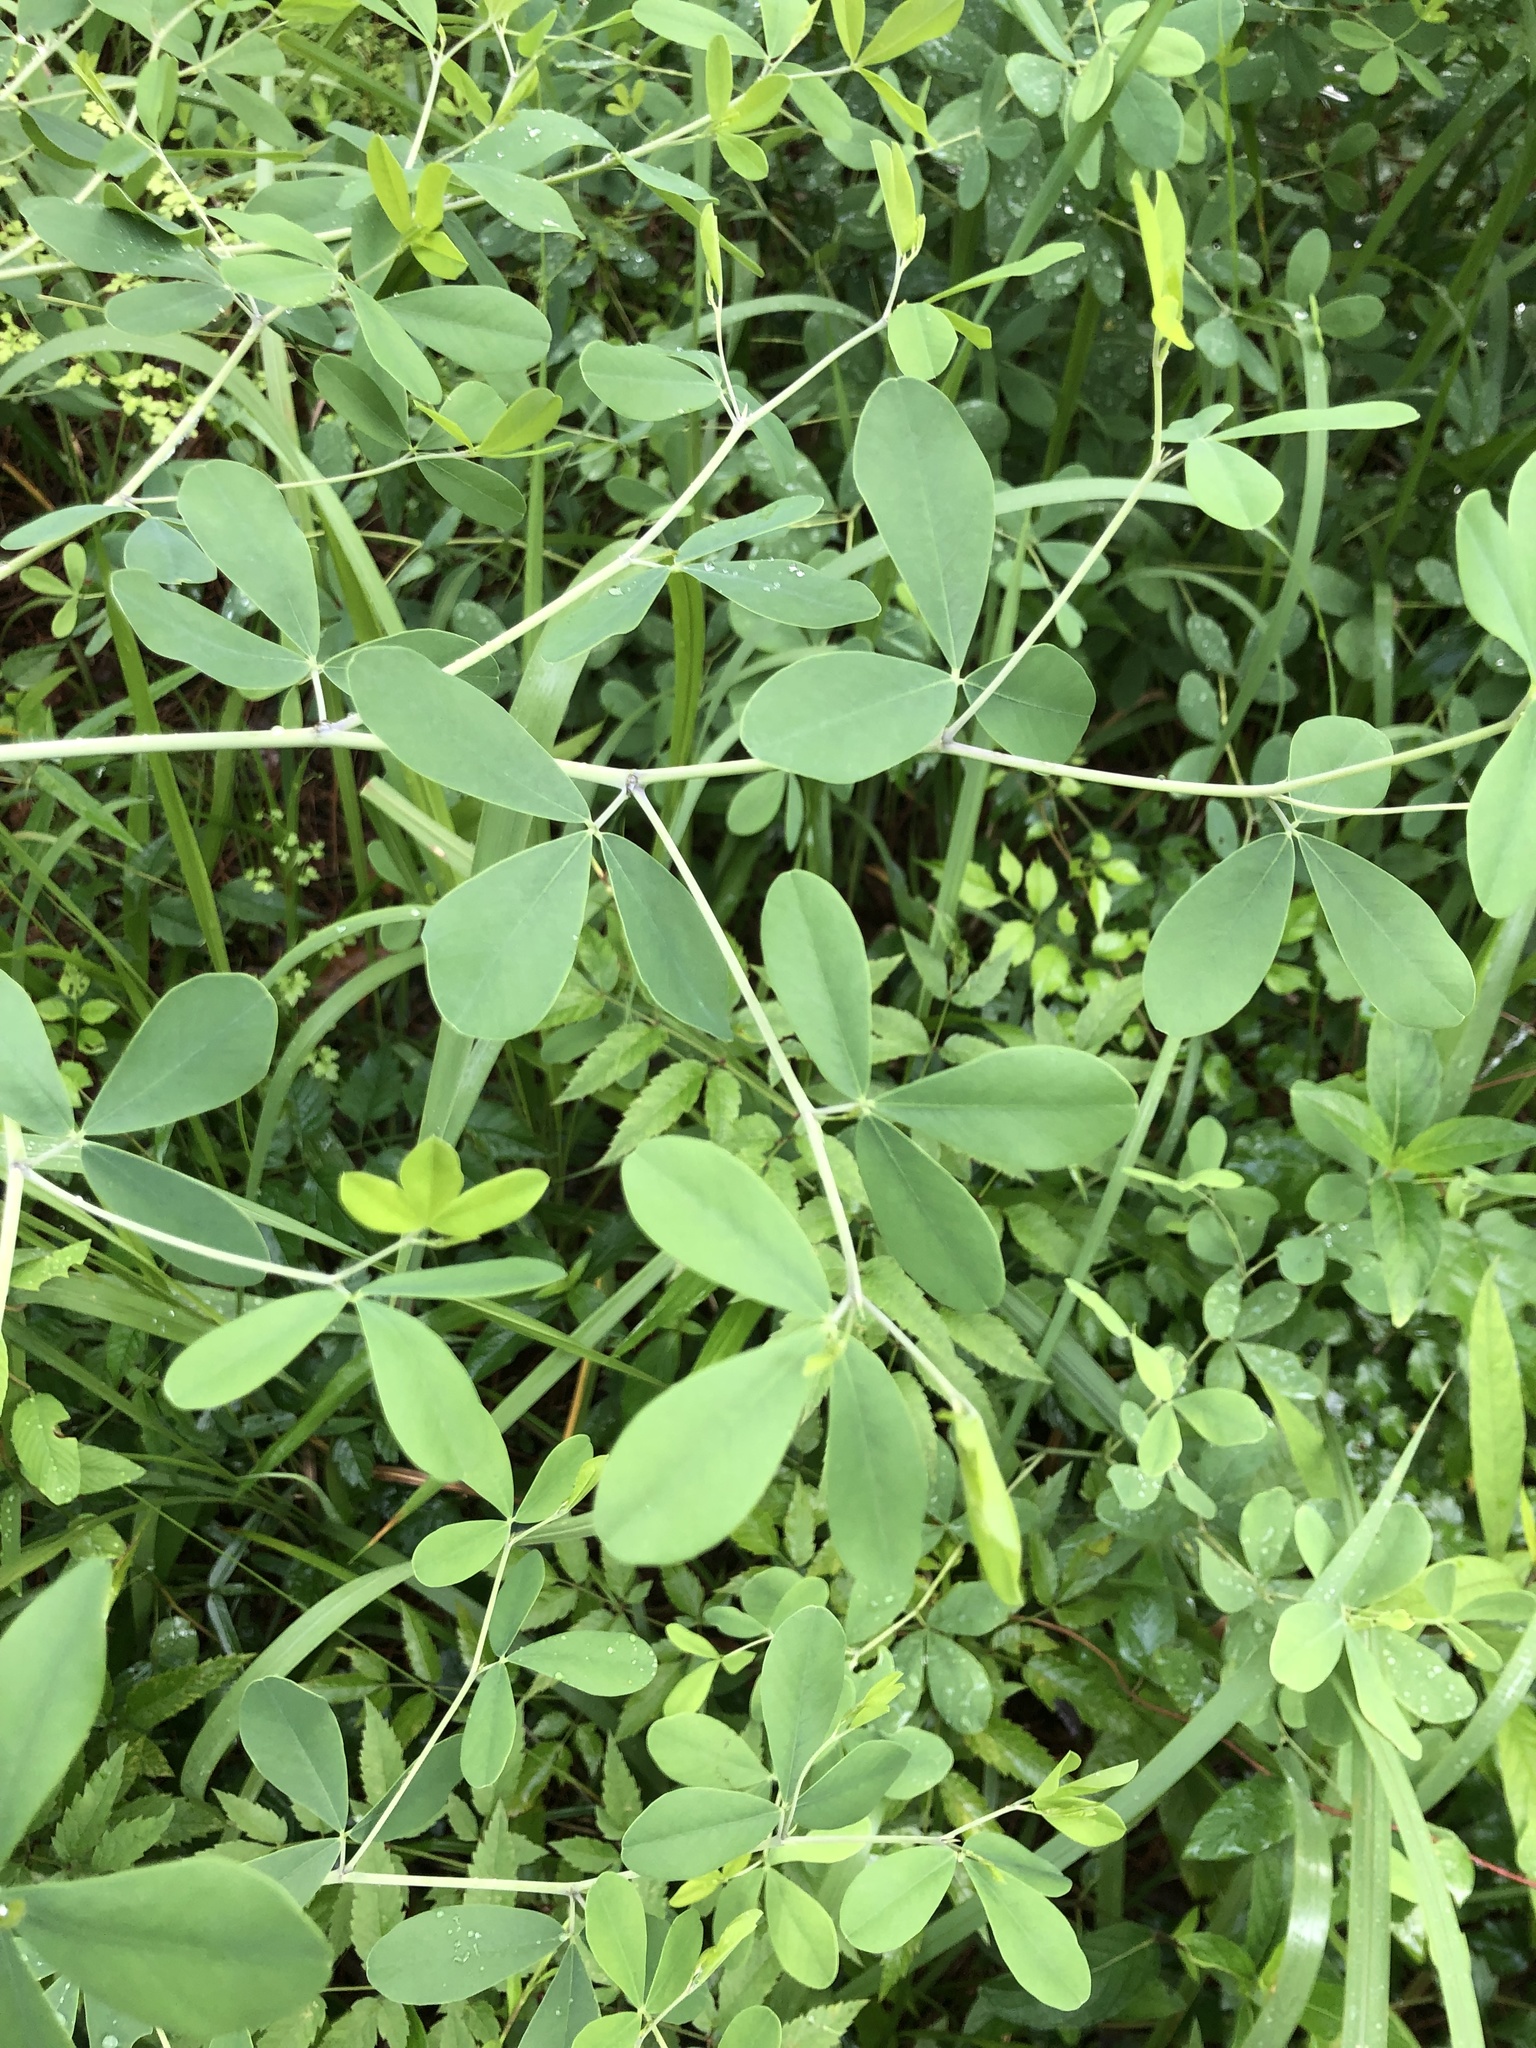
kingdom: Plantae
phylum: Tracheophyta
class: Magnoliopsida
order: Fabales
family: Fabaceae
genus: Baptisia
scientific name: Baptisia alba
